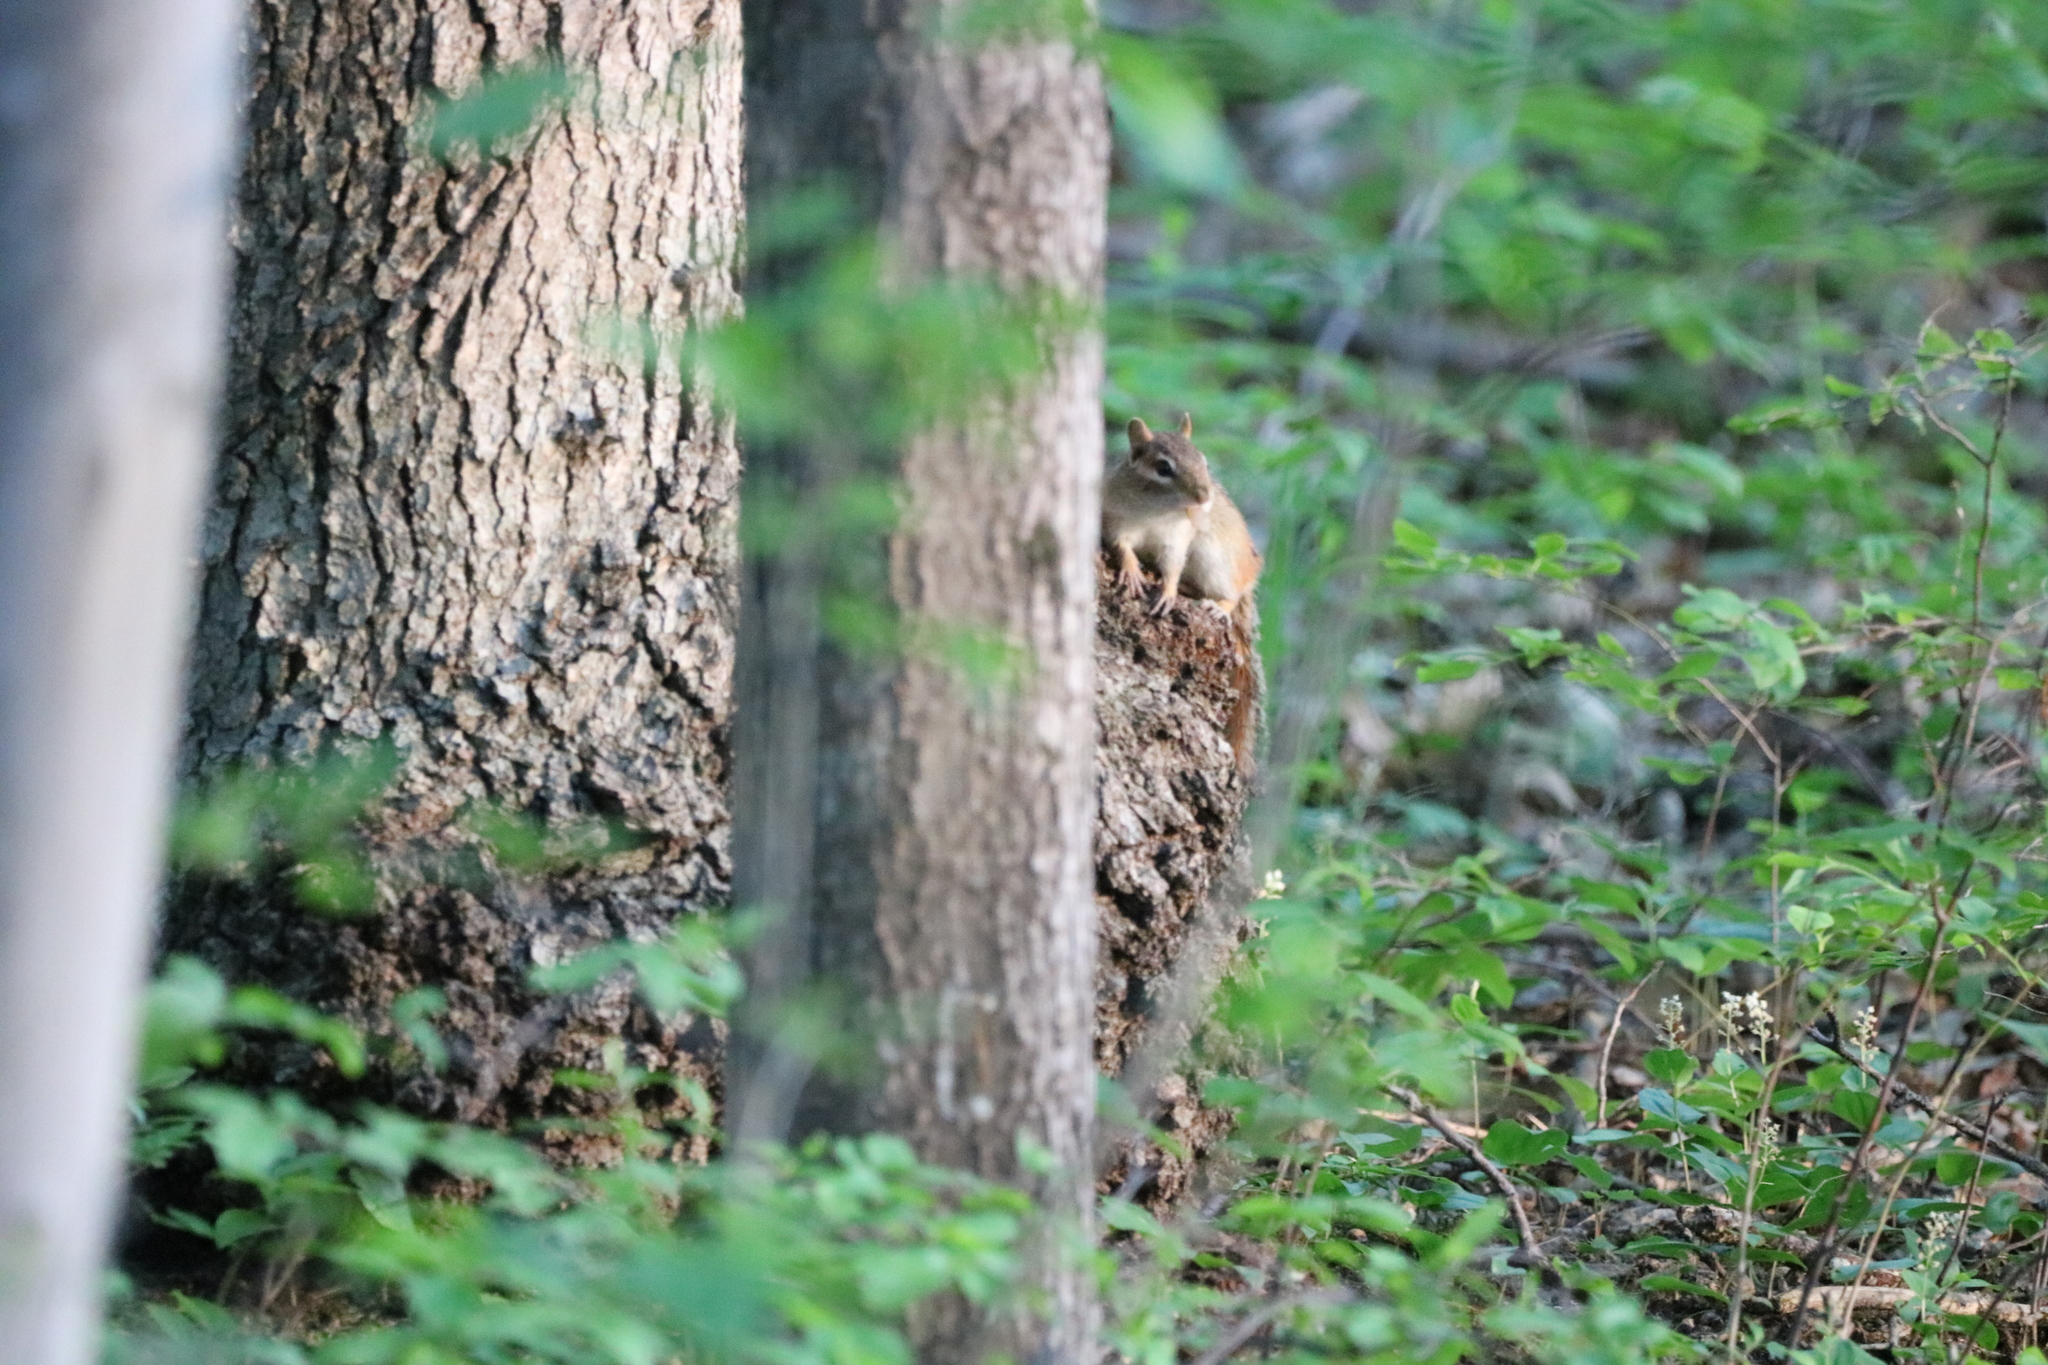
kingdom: Animalia
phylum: Chordata
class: Mammalia
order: Rodentia
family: Sciuridae
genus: Tamias
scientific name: Tamias striatus
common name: Eastern chipmunk
